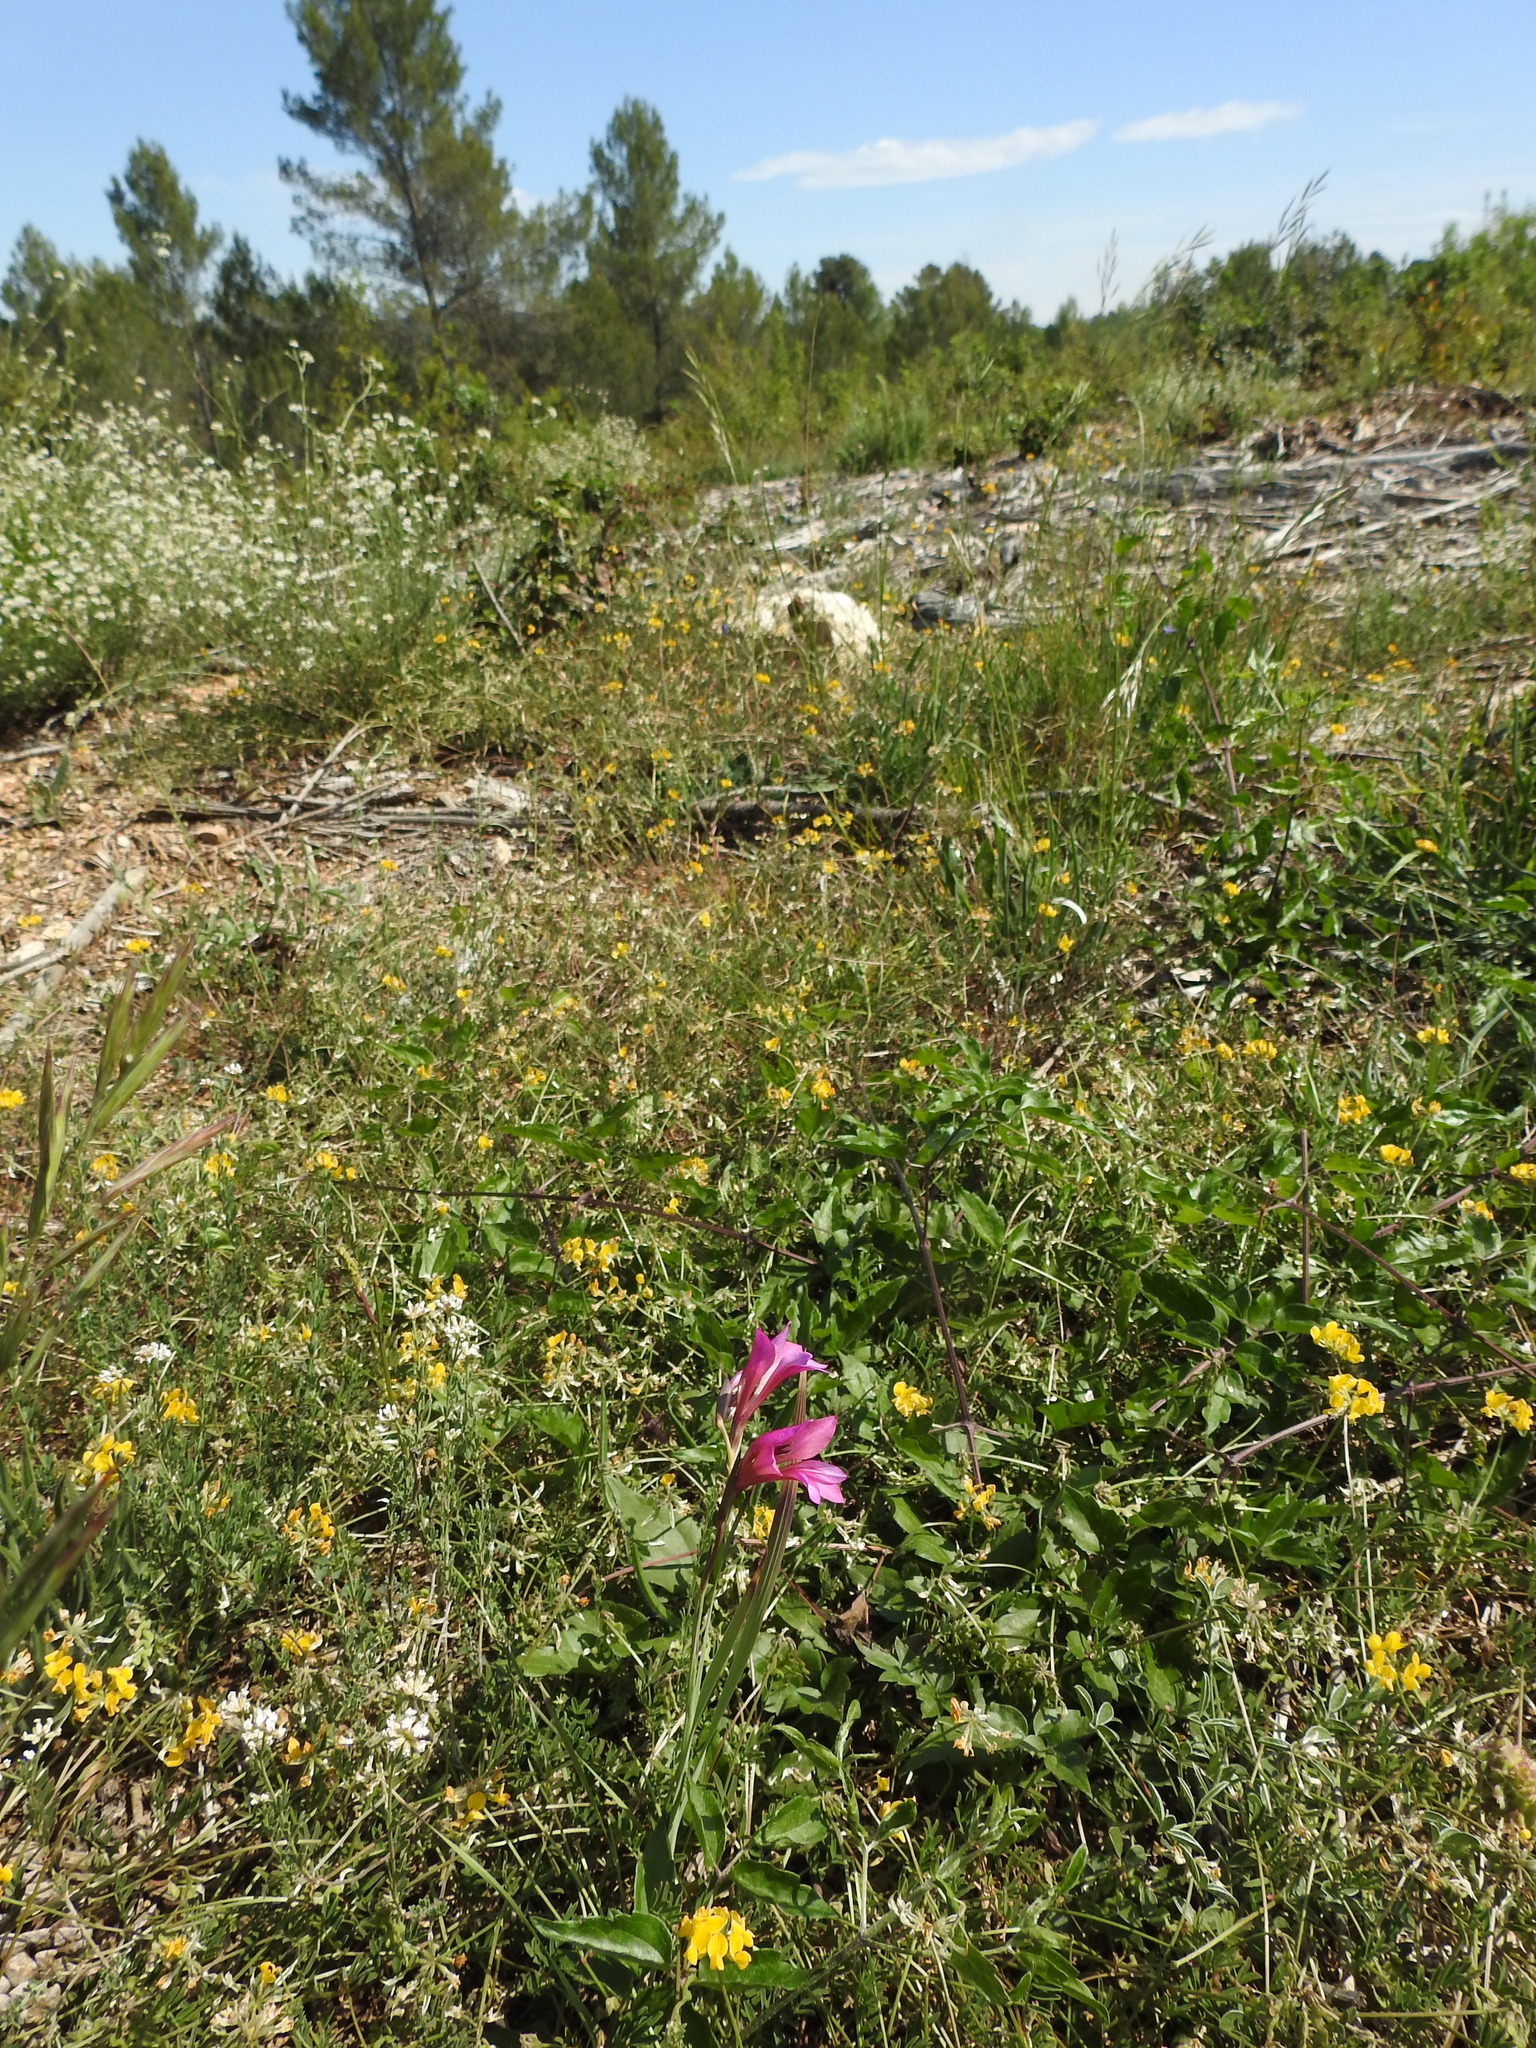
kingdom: Plantae
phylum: Tracheophyta
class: Liliopsida
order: Asparagales
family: Iridaceae
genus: Gladiolus
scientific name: Gladiolus dubius
